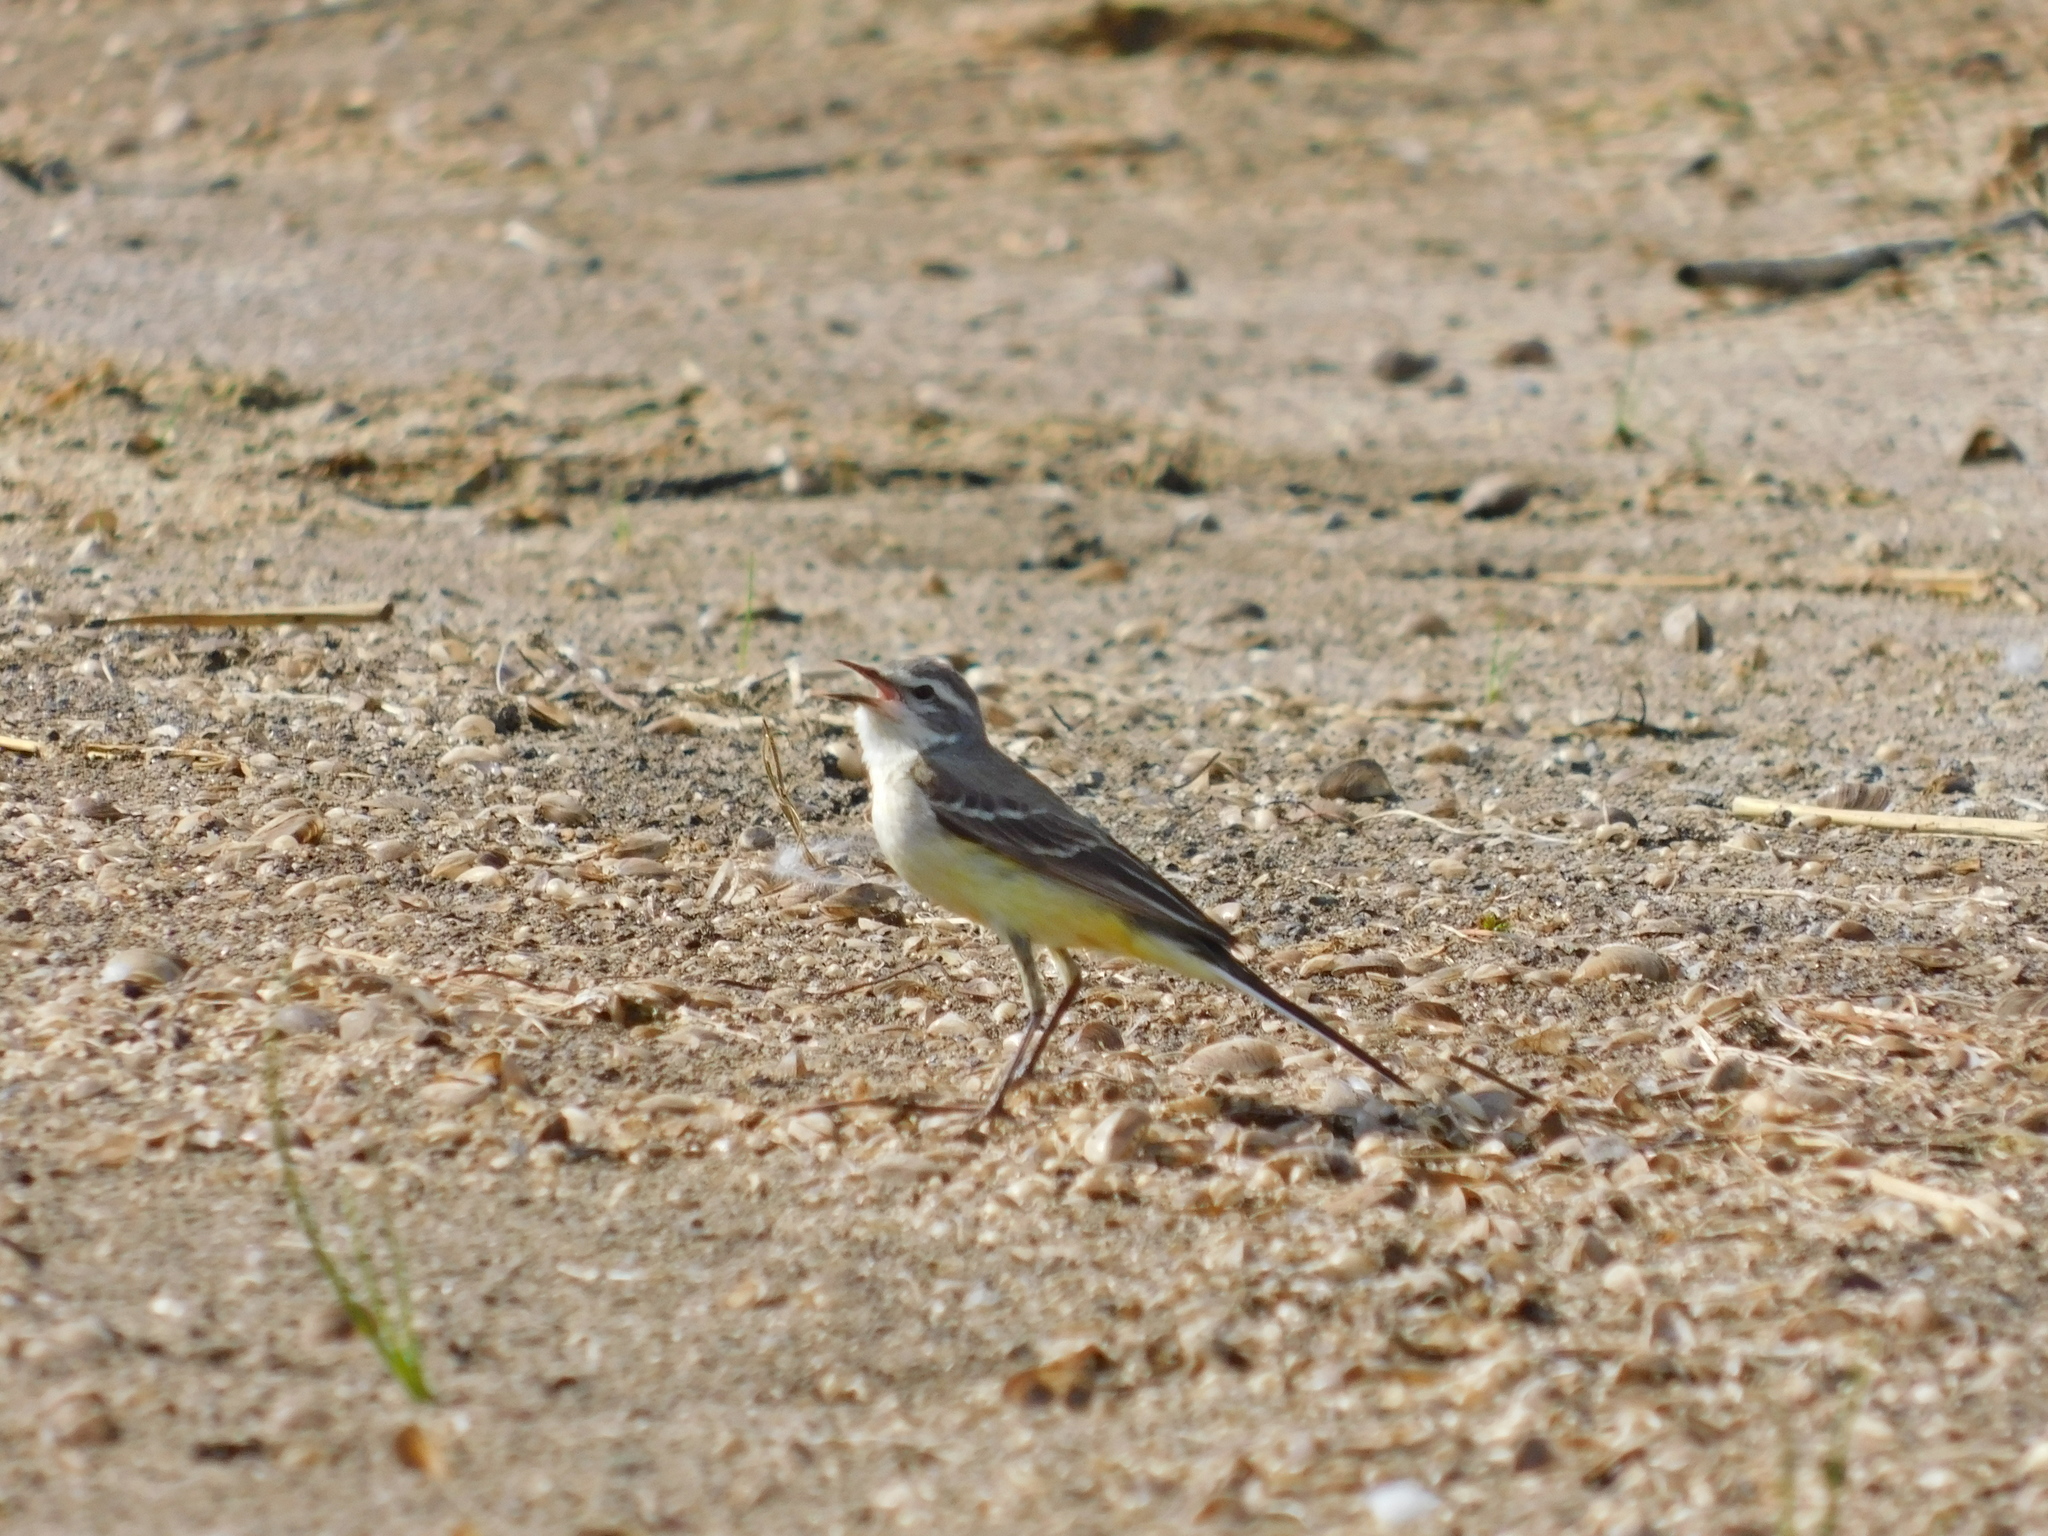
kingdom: Animalia
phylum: Chordata
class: Aves
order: Passeriformes
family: Motacillidae
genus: Motacilla
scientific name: Motacilla flava
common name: Western yellow wagtail
